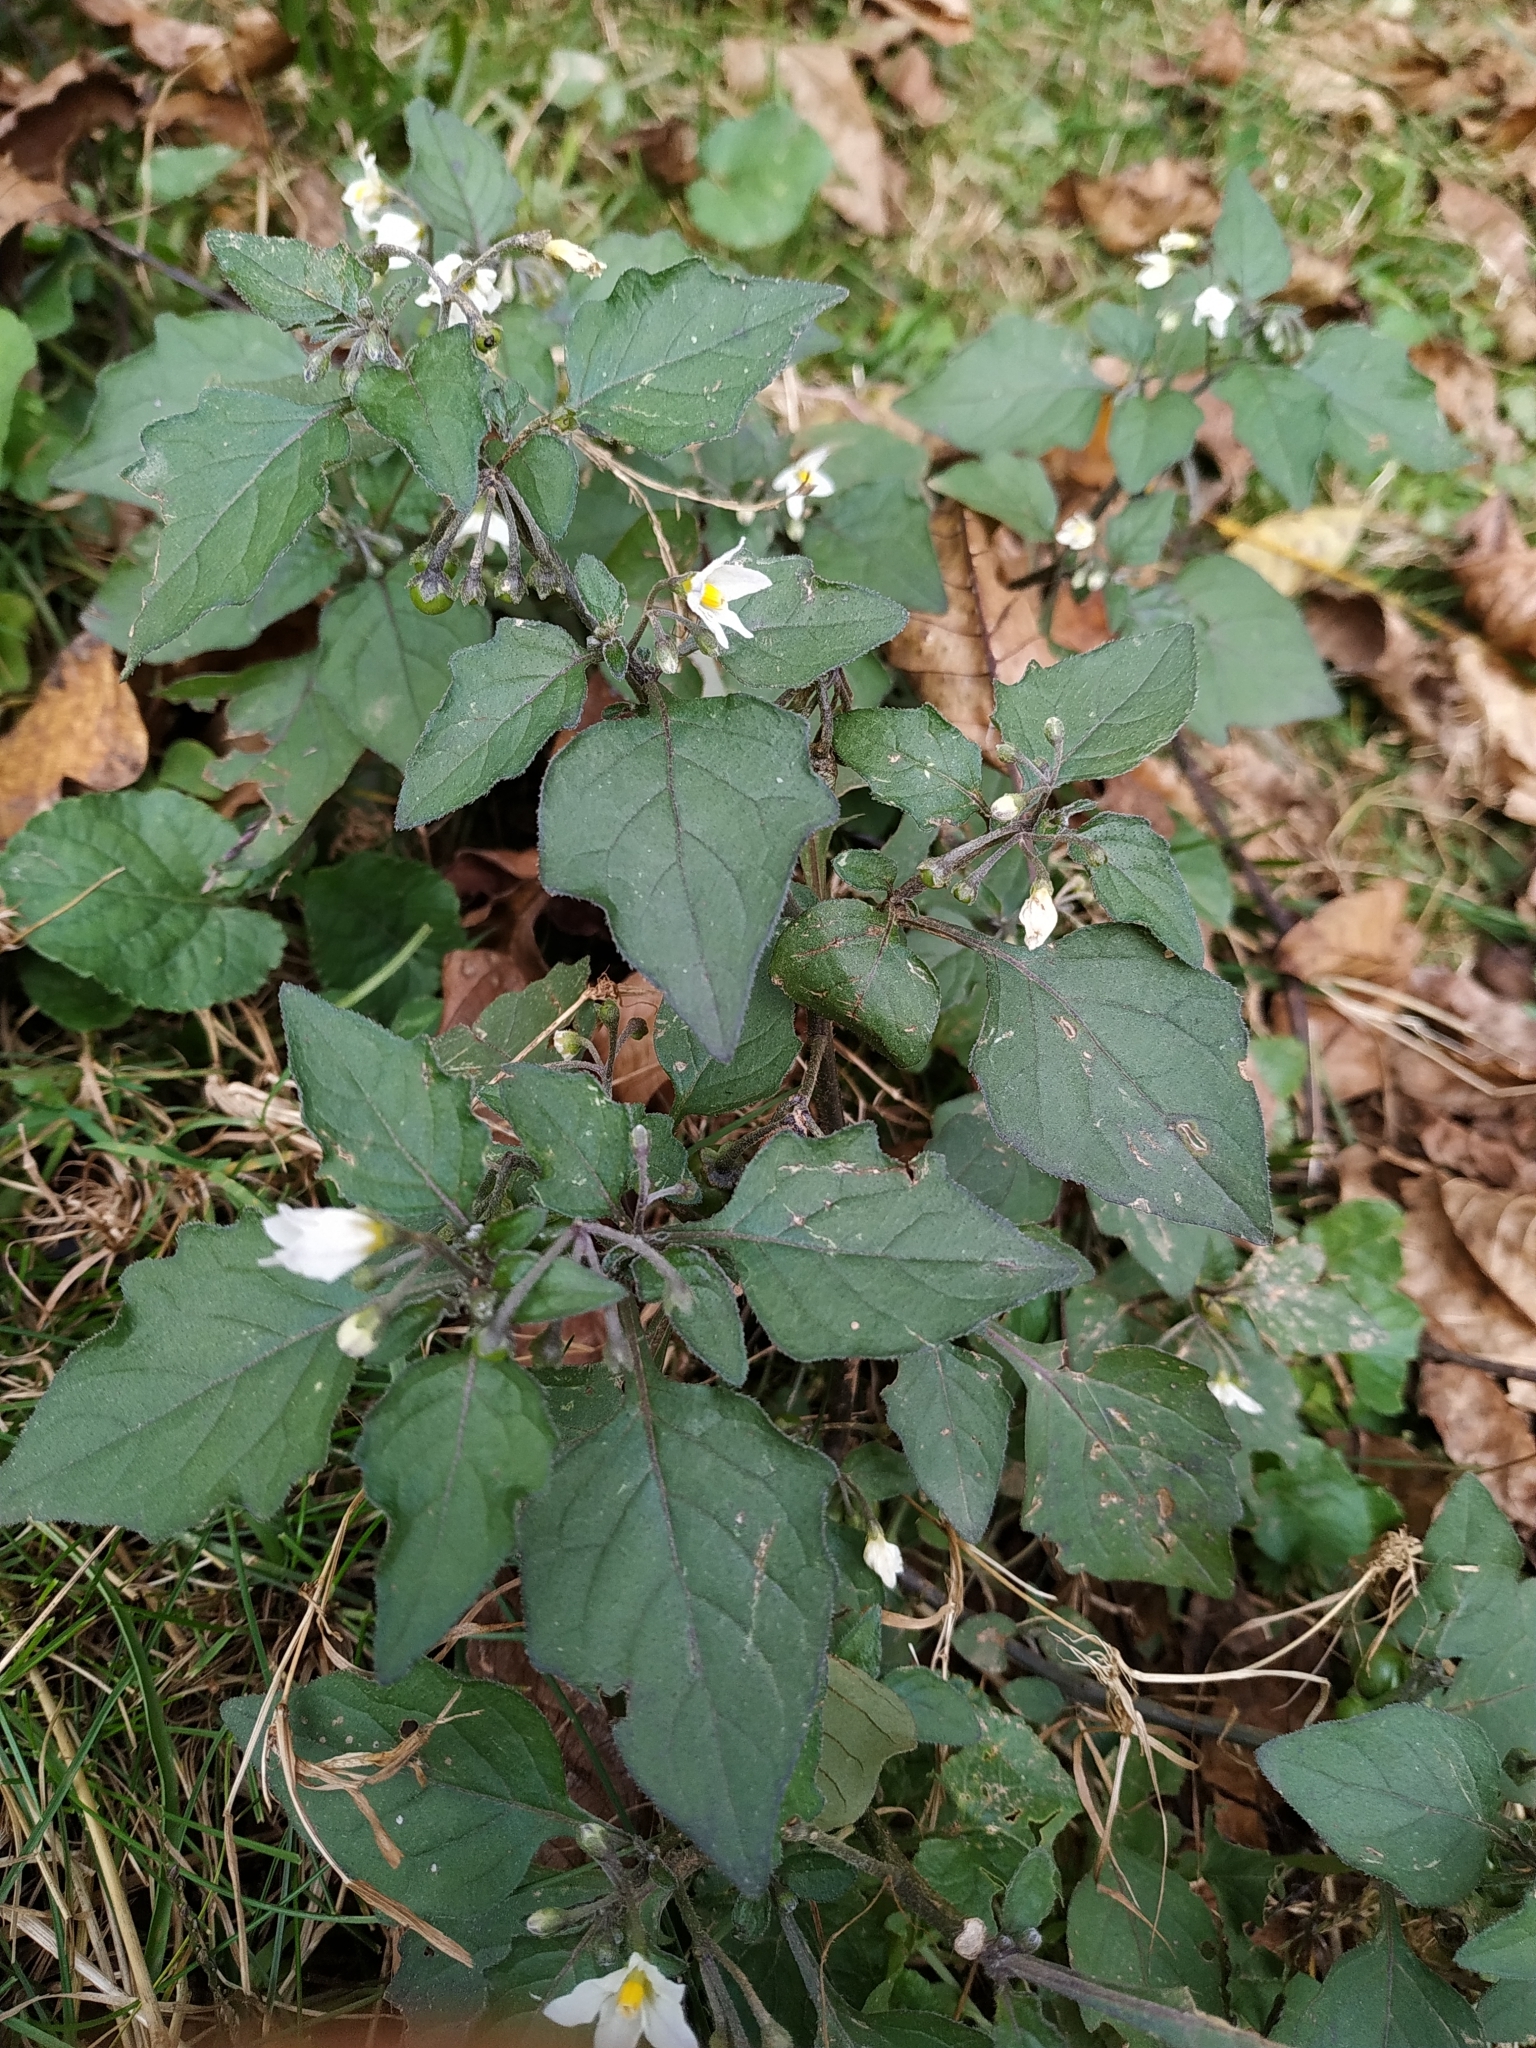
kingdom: Plantae
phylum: Tracheophyta
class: Magnoliopsida
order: Solanales
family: Solanaceae
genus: Solanum
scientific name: Solanum nigrum
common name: Black nightshade
